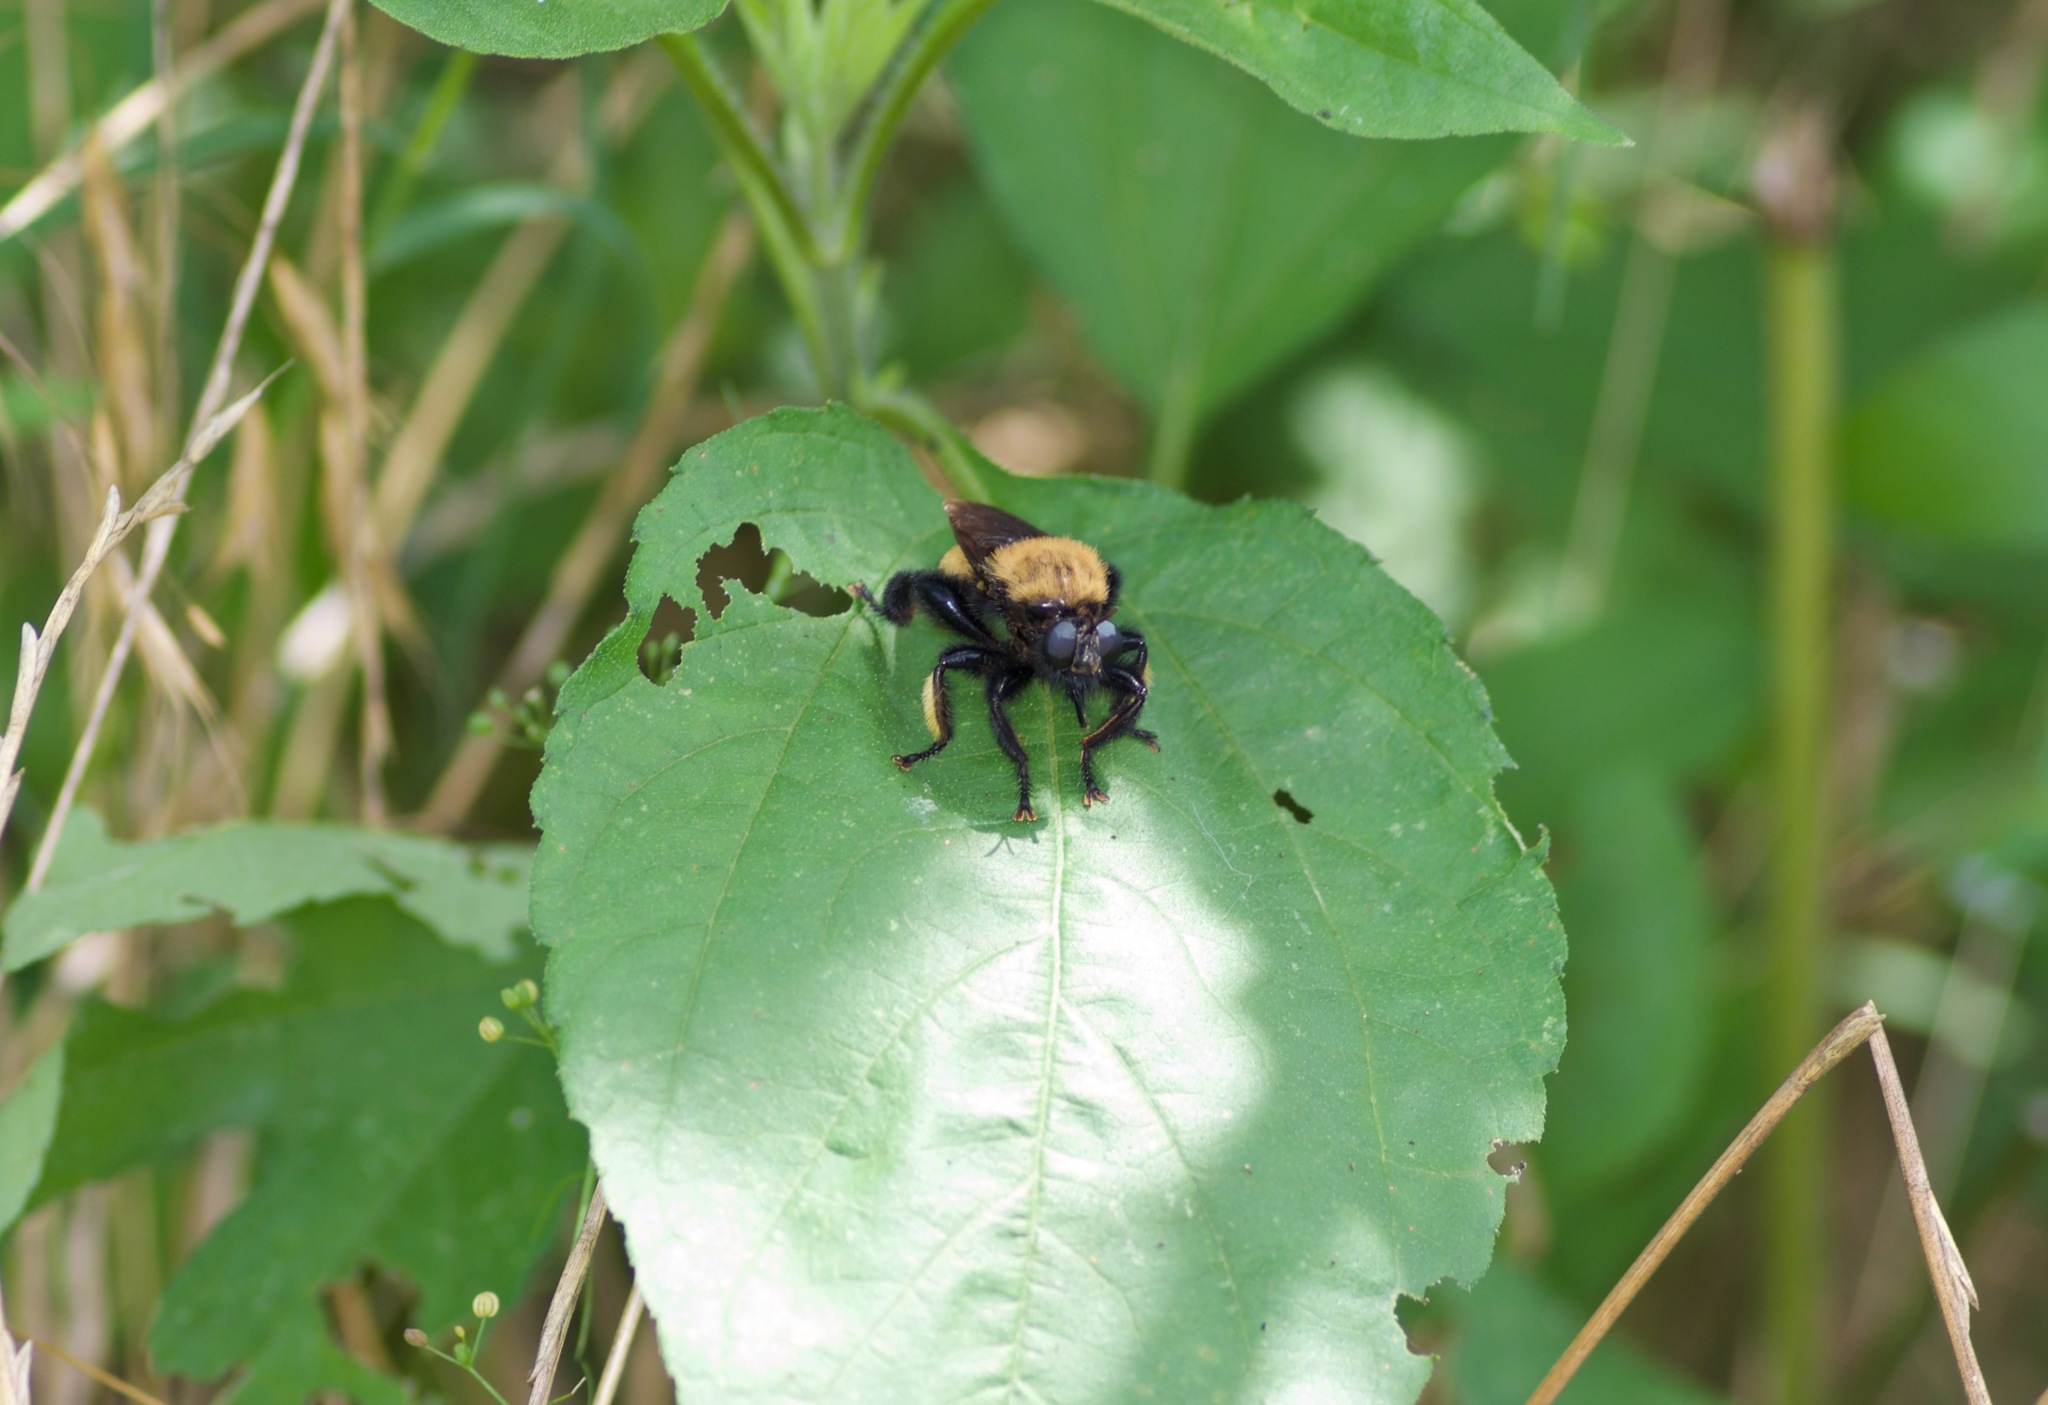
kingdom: Animalia
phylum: Arthropoda
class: Insecta
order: Diptera
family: Asilidae
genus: Laphria
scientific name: Laphria macquarti
